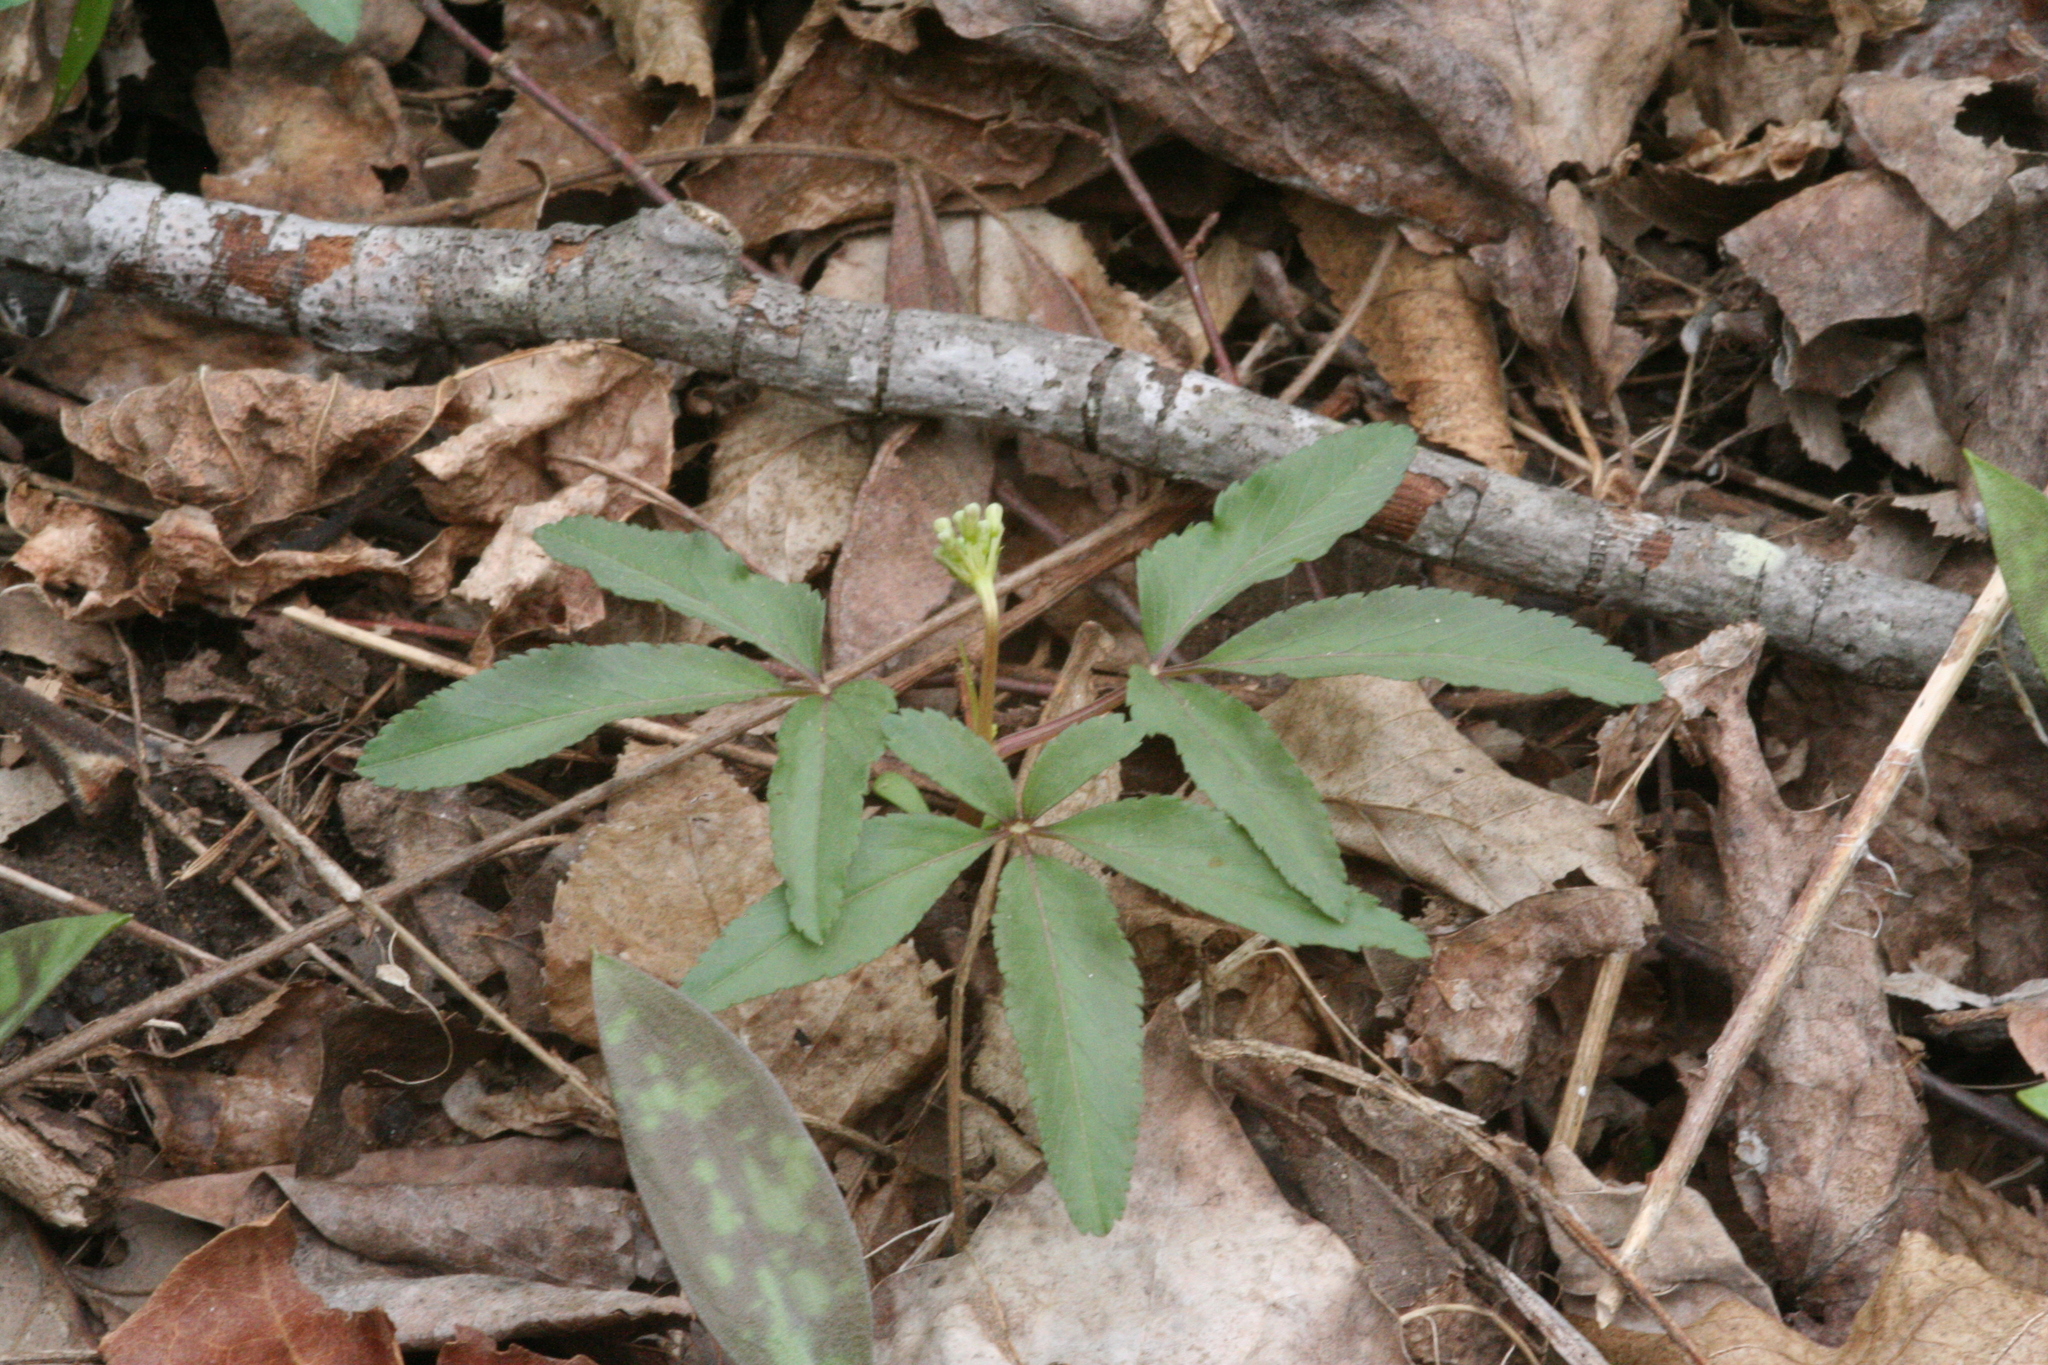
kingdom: Plantae
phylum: Tracheophyta
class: Magnoliopsida
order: Apiales
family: Araliaceae
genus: Panax
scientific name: Panax trifolius
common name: Dwarf ginseng
